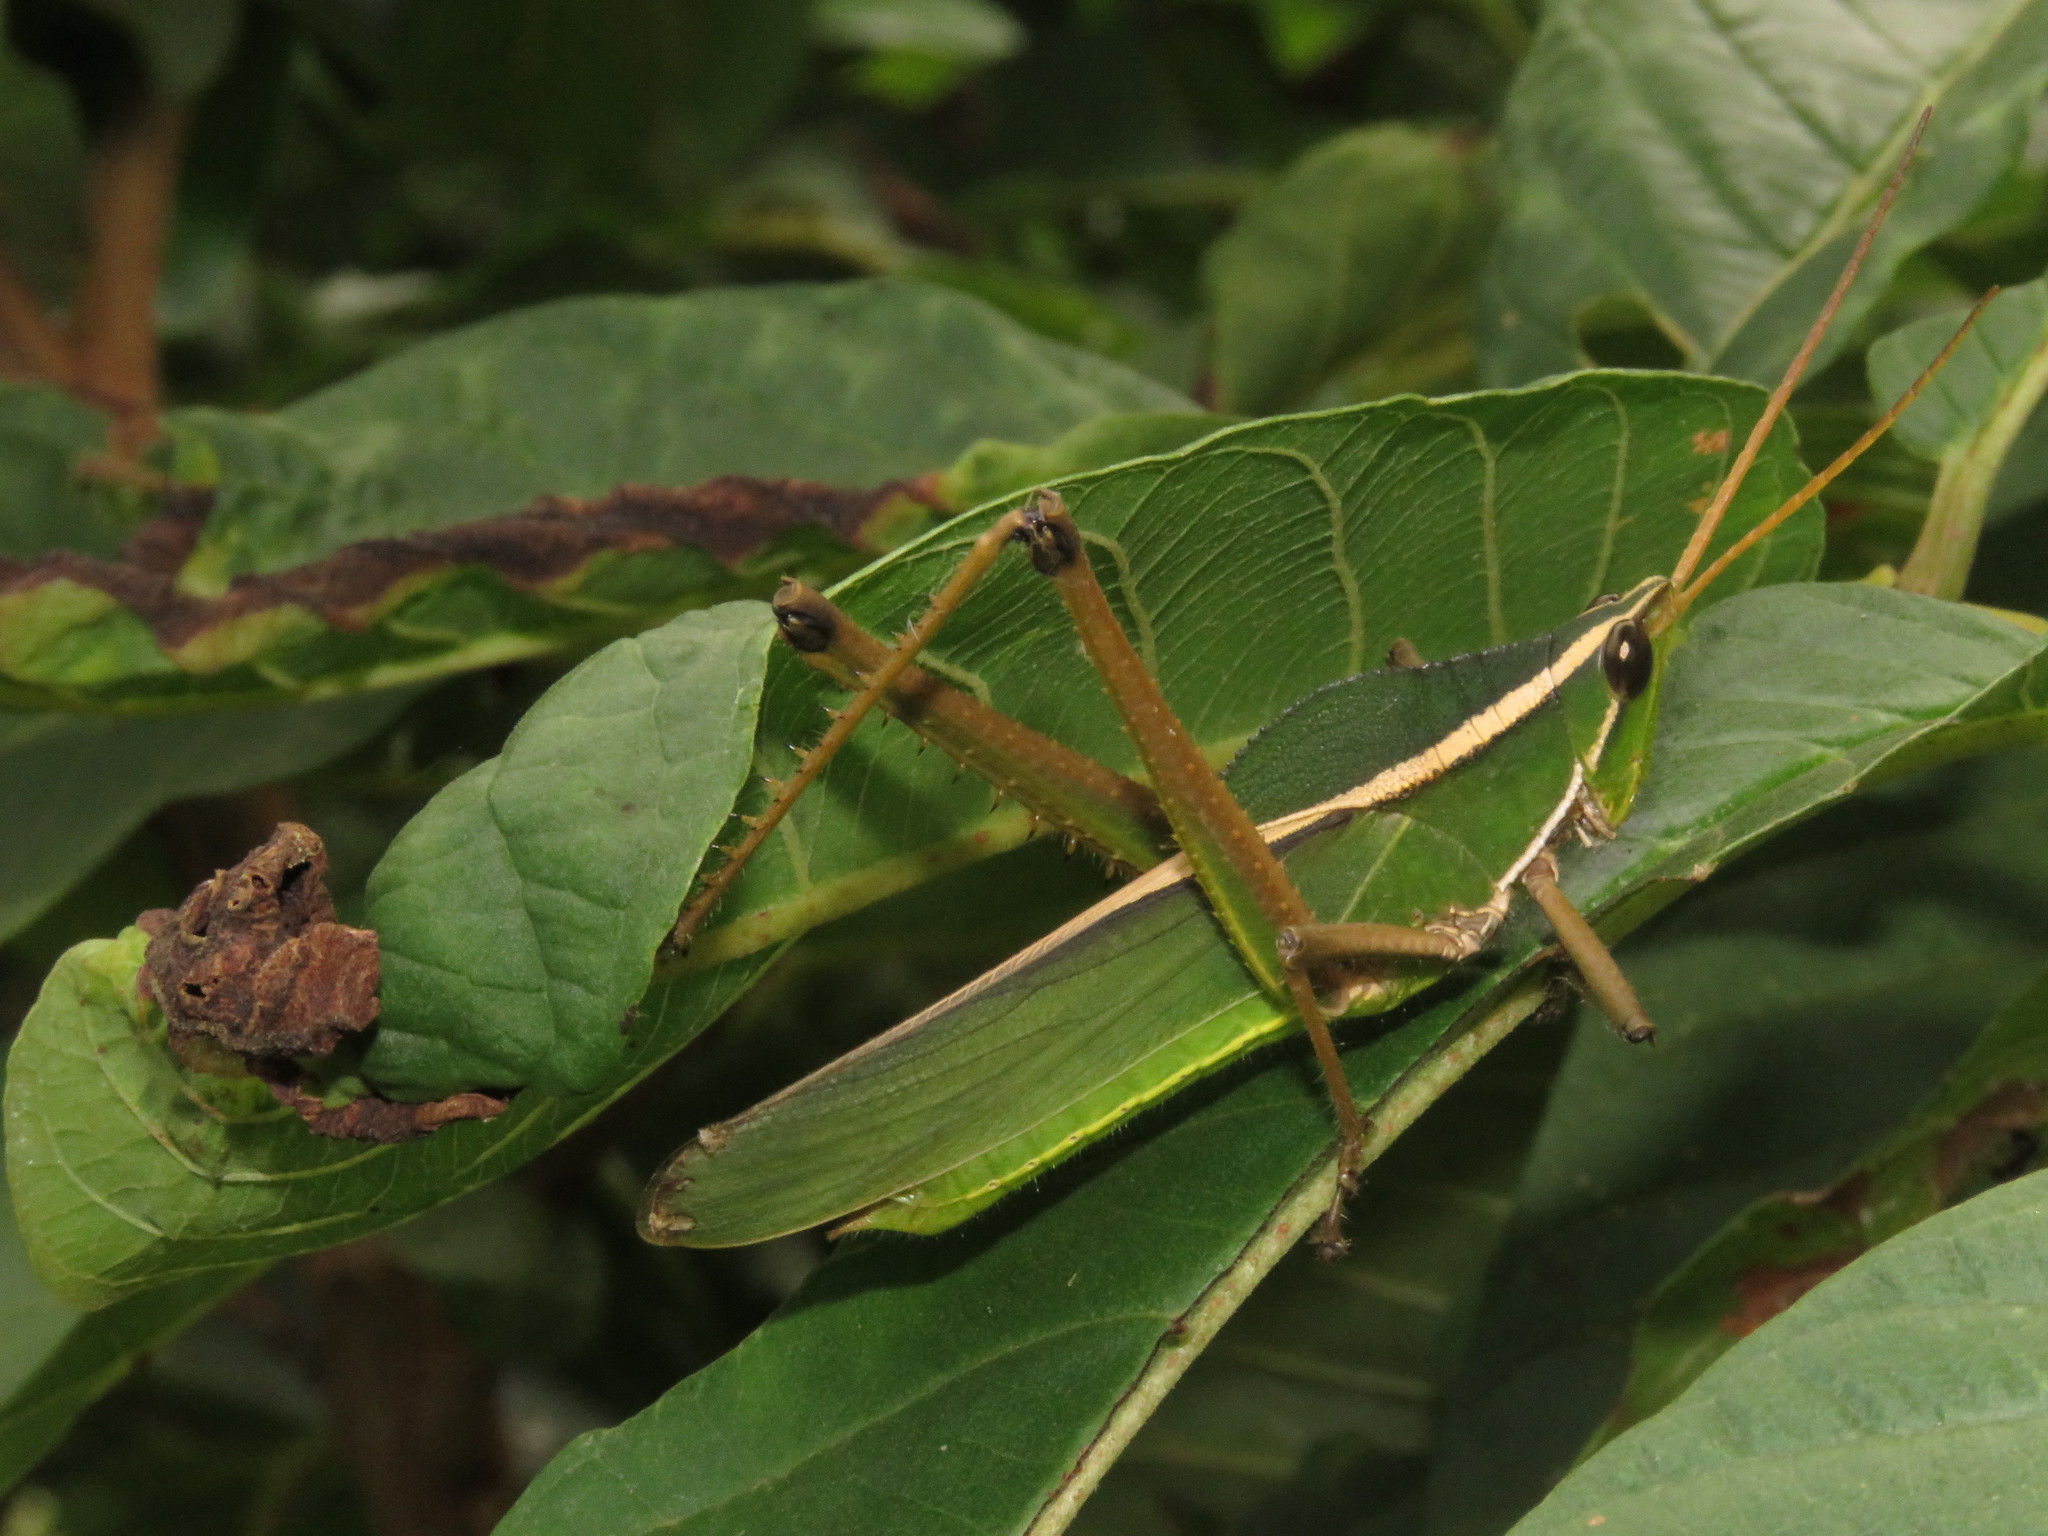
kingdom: Animalia
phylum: Arthropoda
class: Insecta
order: Orthoptera
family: Romaleidae
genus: Prionolopha
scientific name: Prionolopha serrata
